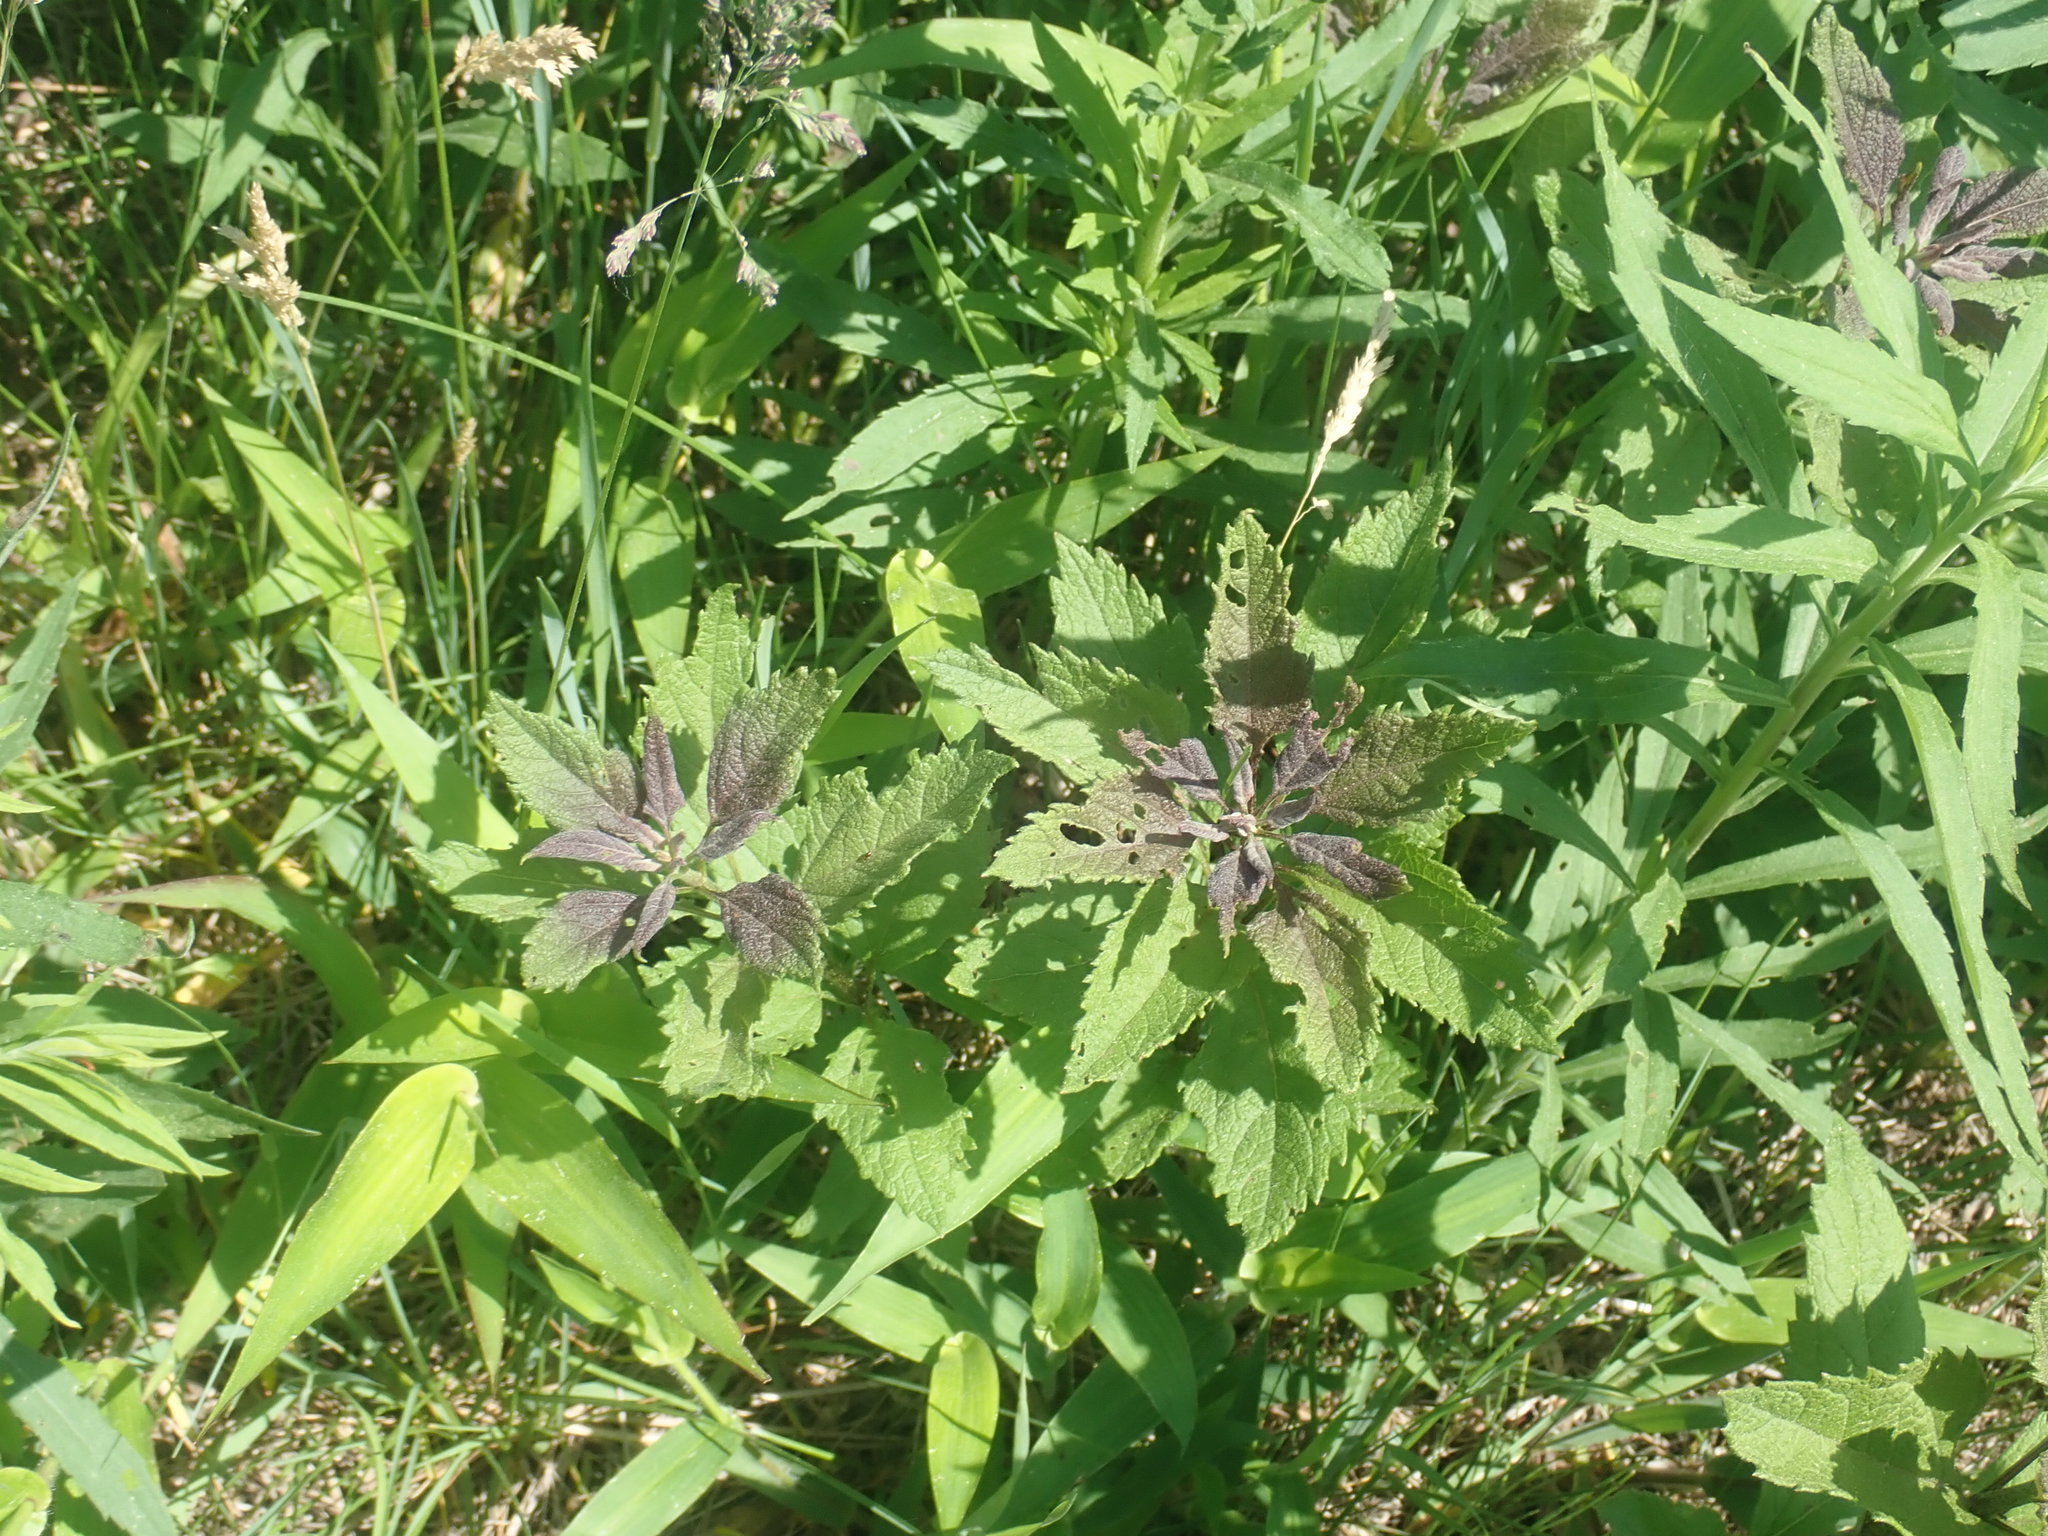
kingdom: Plantae
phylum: Tracheophyta
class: Magnoliopsida
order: Asterales
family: Asteraceae
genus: Eutrochium
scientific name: Eutrochium
